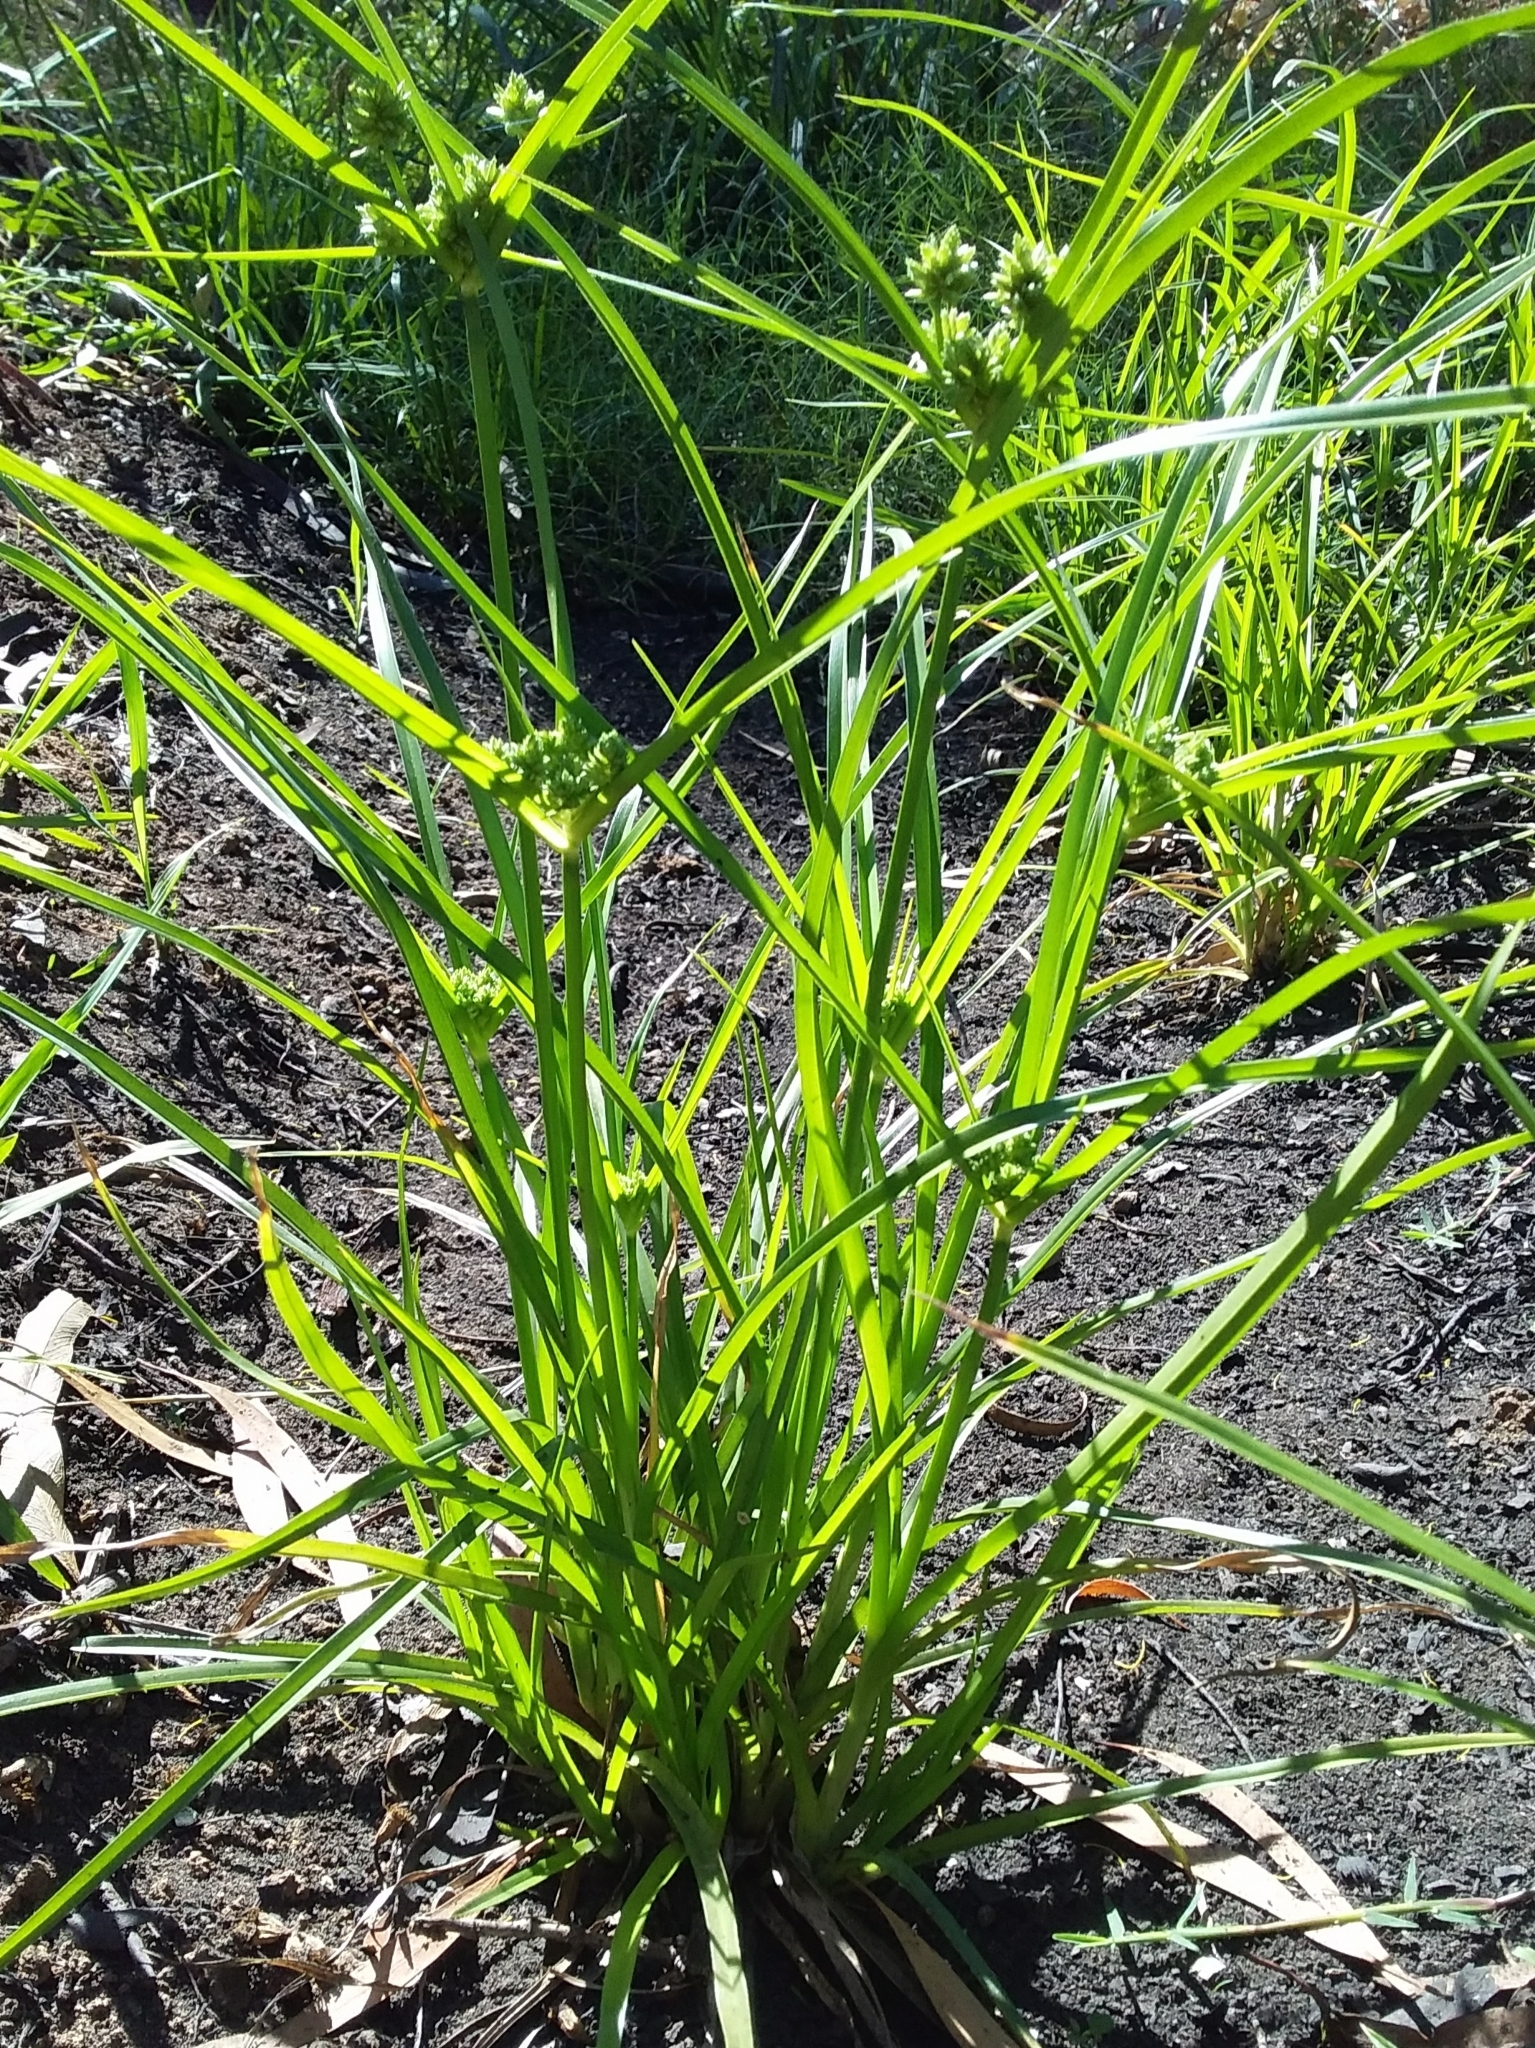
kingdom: Plantae
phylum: Tracheophyta
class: Liliopsida
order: Poales
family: Cyperaceae
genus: Cyperus
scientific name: Cyperus eragrostis
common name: Tall flatsedge
